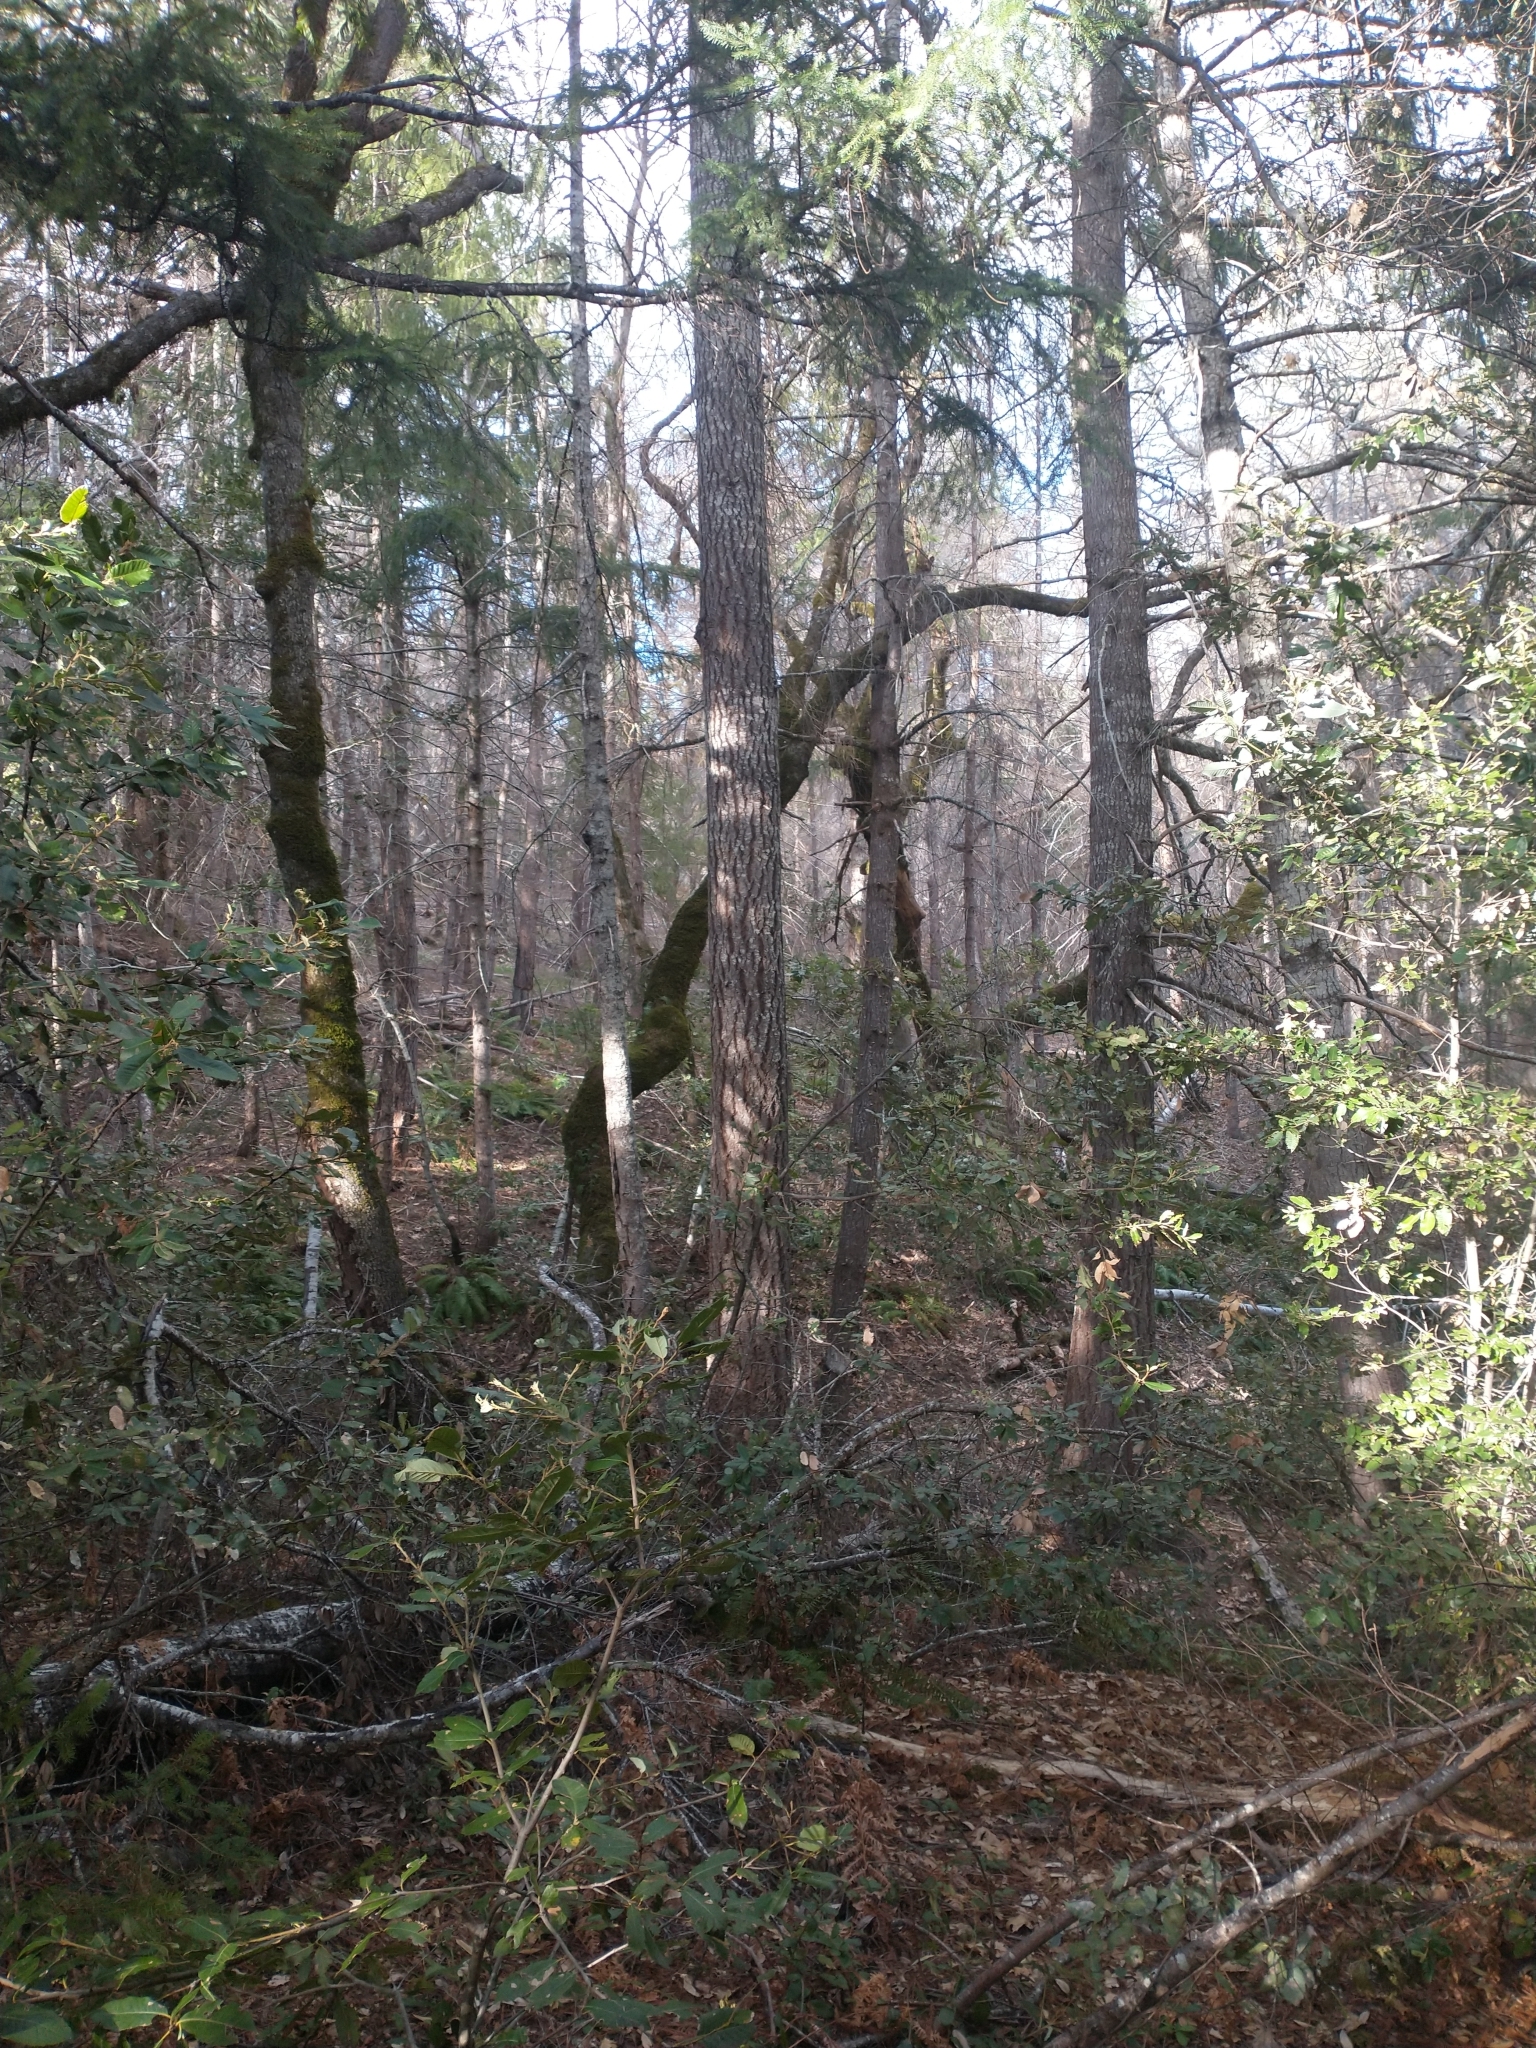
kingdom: Plantae
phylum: Tracheophyta
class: Pinopsida
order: Pinales
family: Pinaceae
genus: Pseudotsuga
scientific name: Pseudotsuga menziesii
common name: Douglas fir
